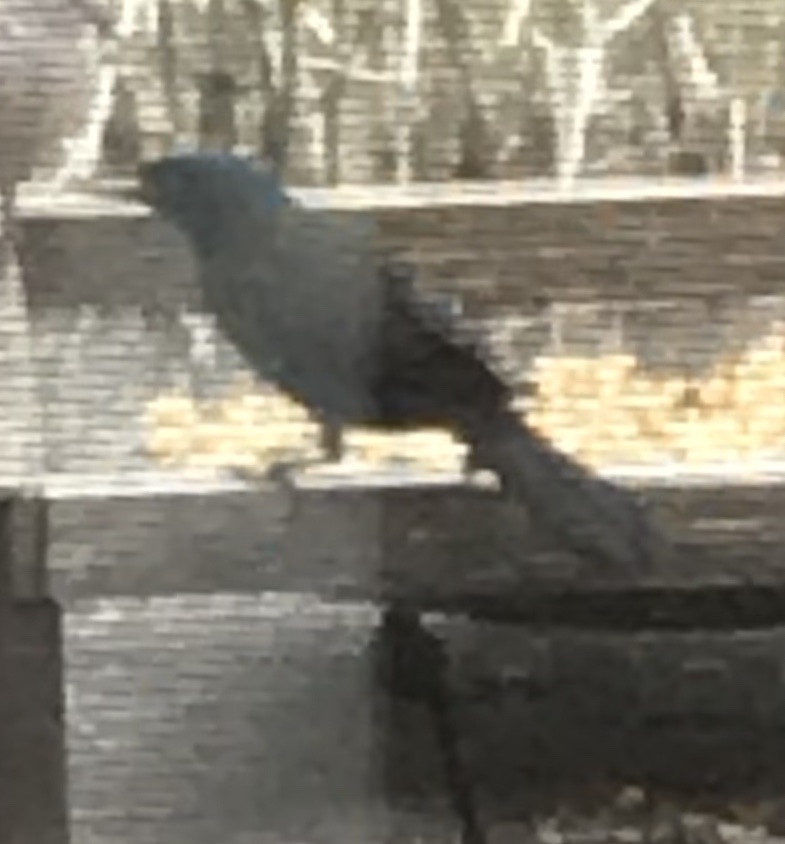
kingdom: Animalia
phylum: Chordata
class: Aves
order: Passeriformes
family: Icteridae
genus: Quiscalus
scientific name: Quiscalus quiscula
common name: Common grackle
